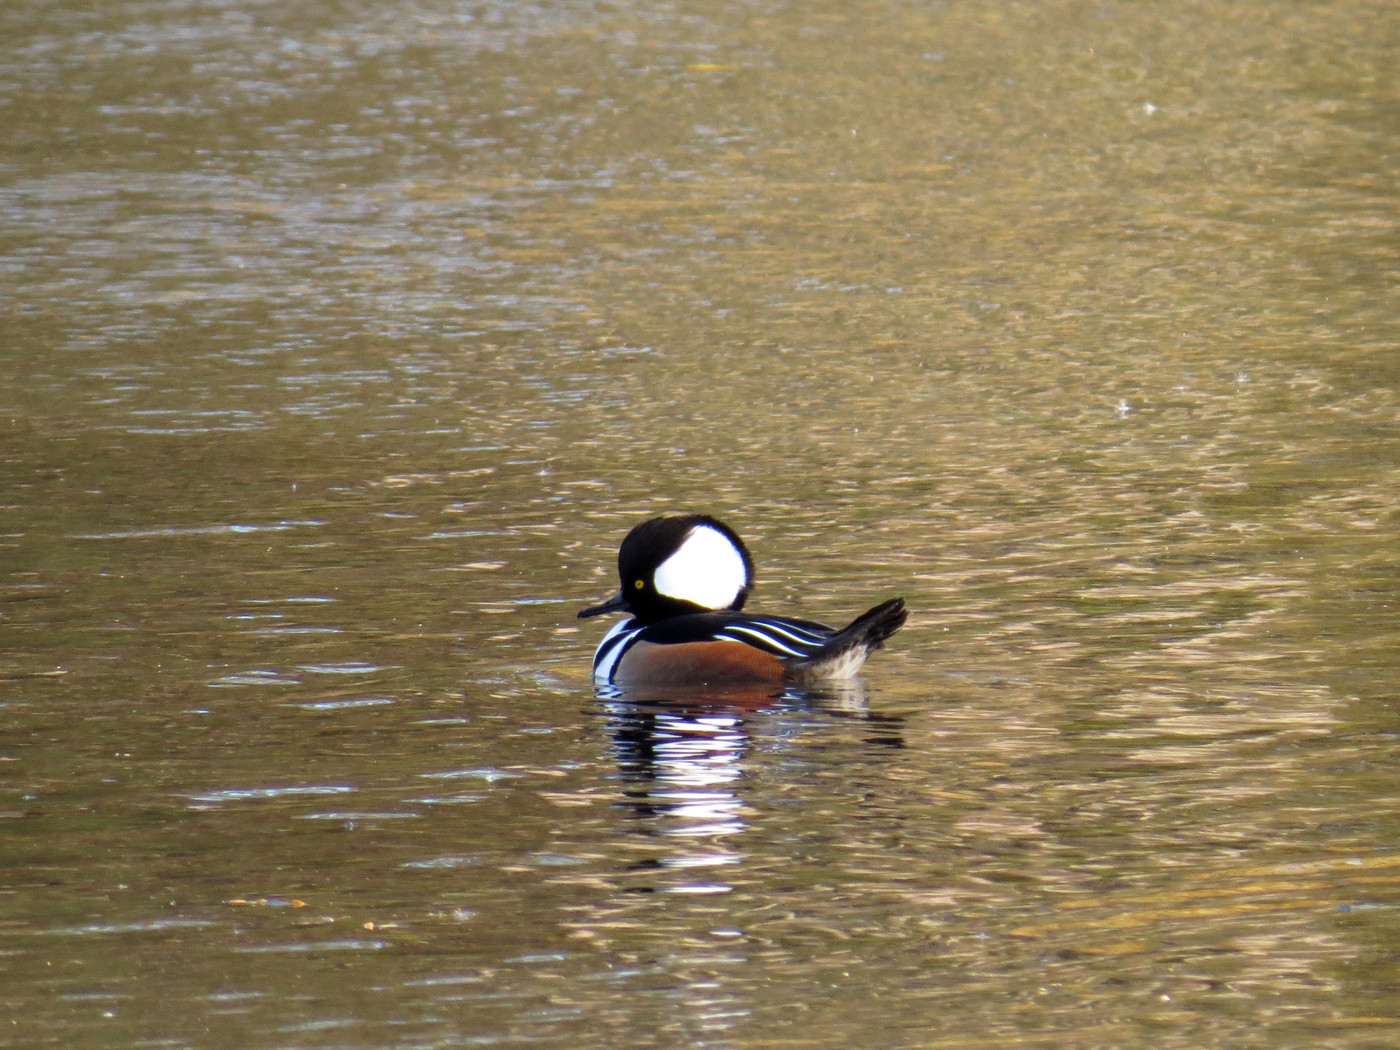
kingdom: Animalia
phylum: Chordata
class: Aves
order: Anseriformes
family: Anatidae
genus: Lophodytes
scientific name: Lophodytes cucullatus
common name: Hooded merganser
